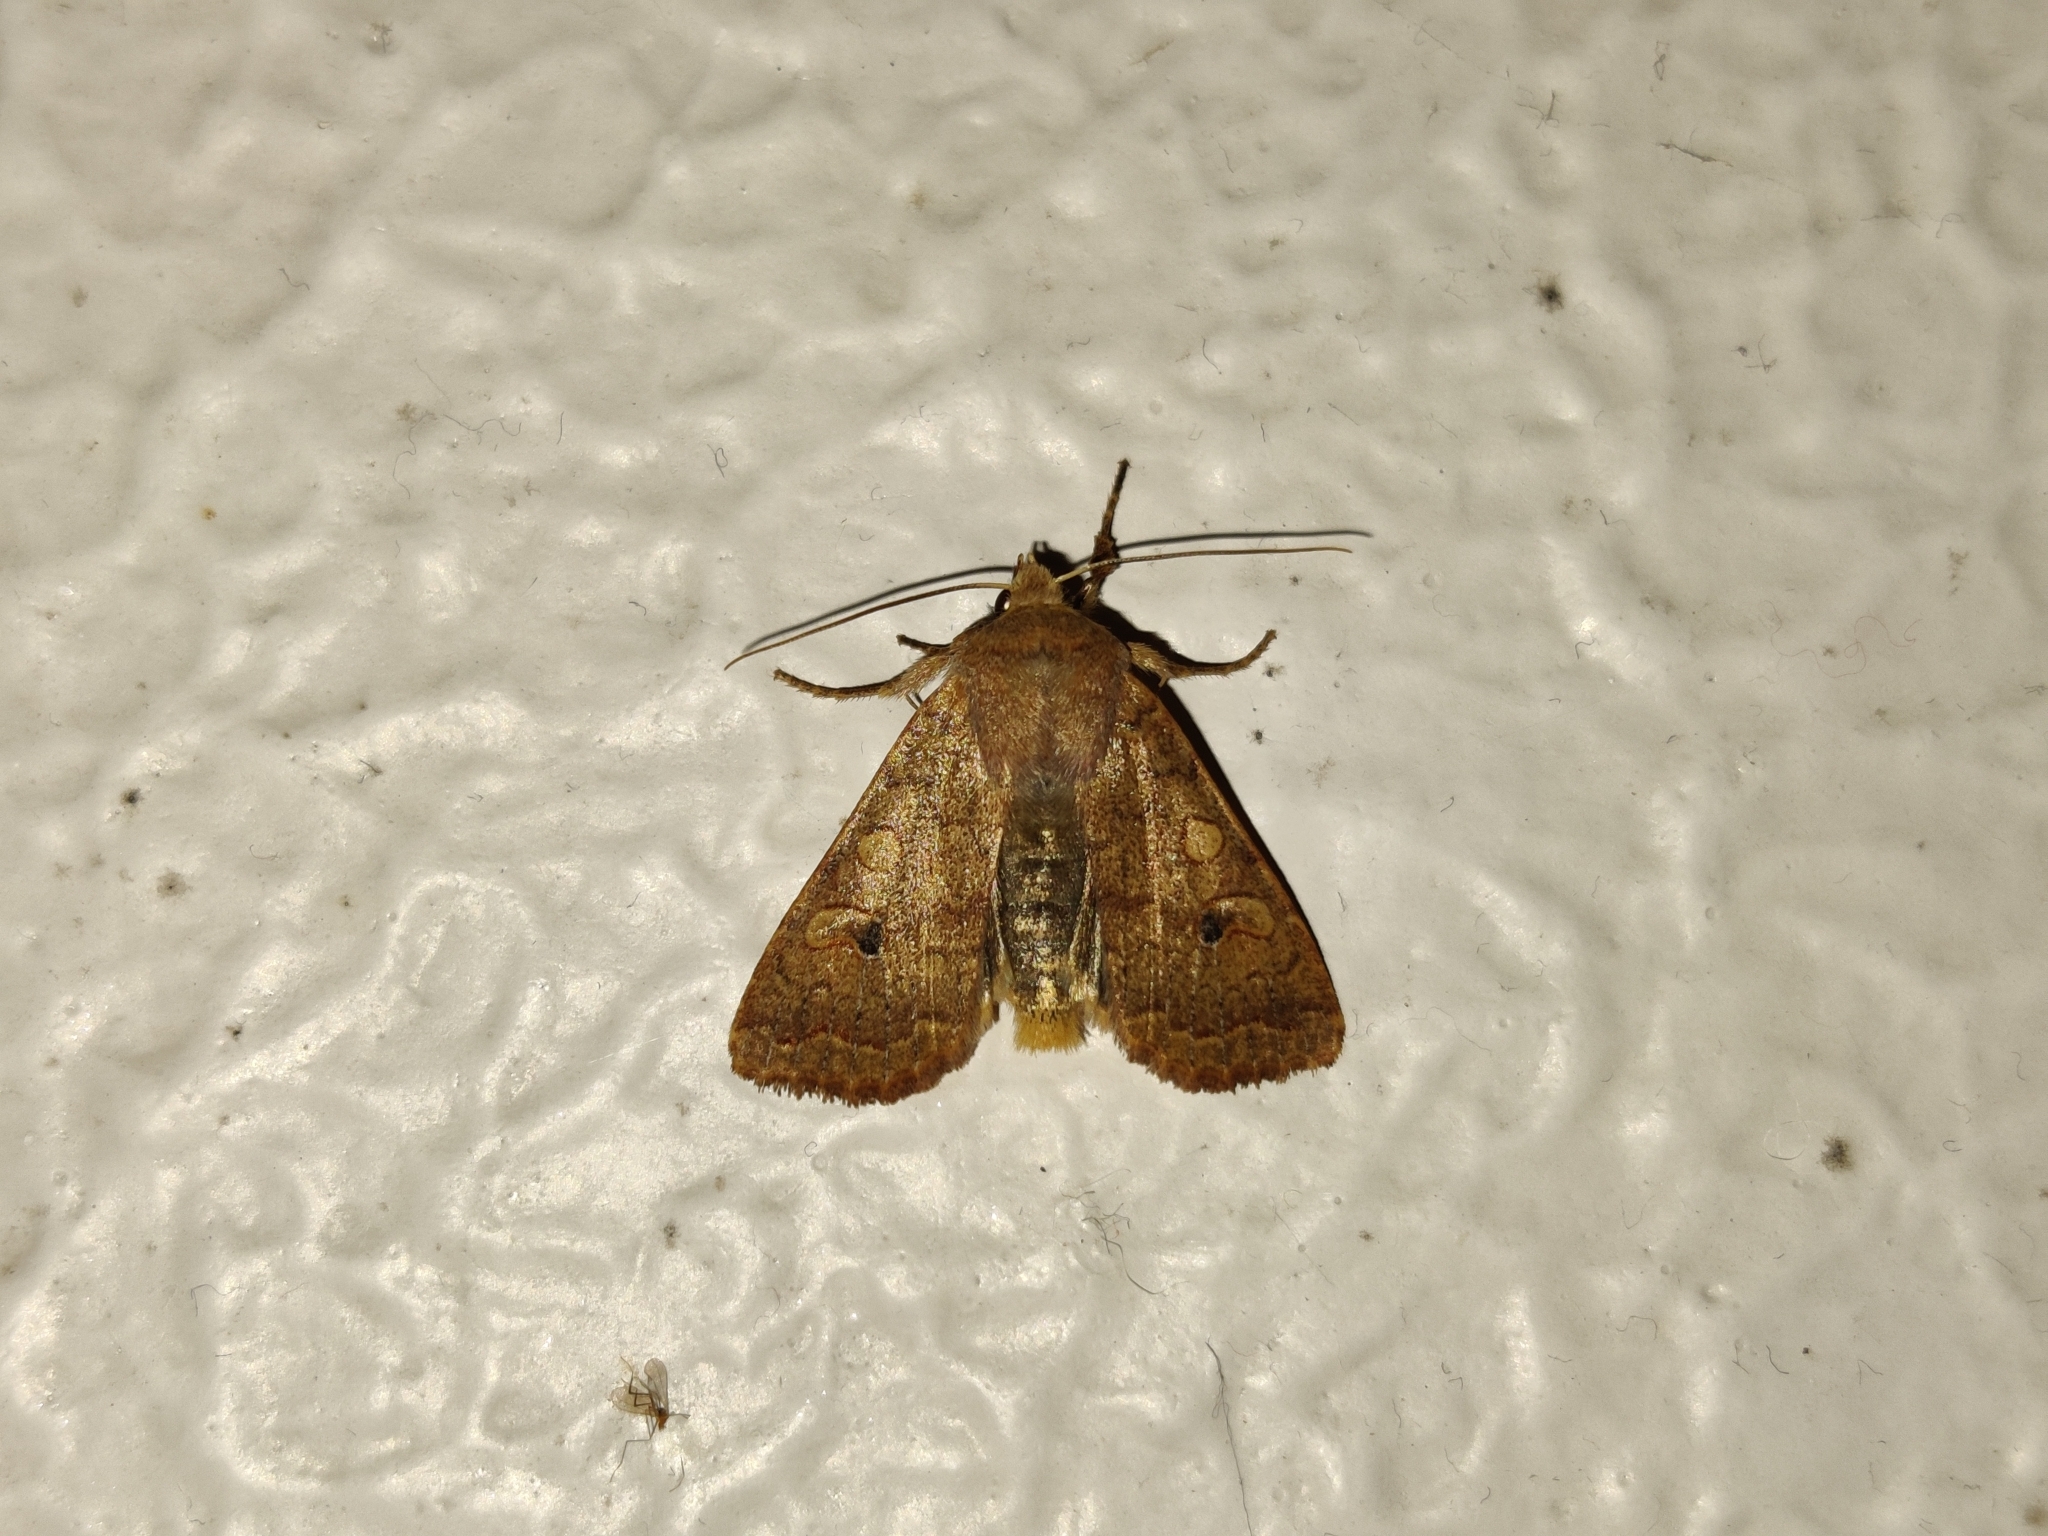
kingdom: Animalia
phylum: Arthropoda
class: Insecta
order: Lepidoptera
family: Noctuidae
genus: Sunira
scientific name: Sunira circellaris
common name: Brick
